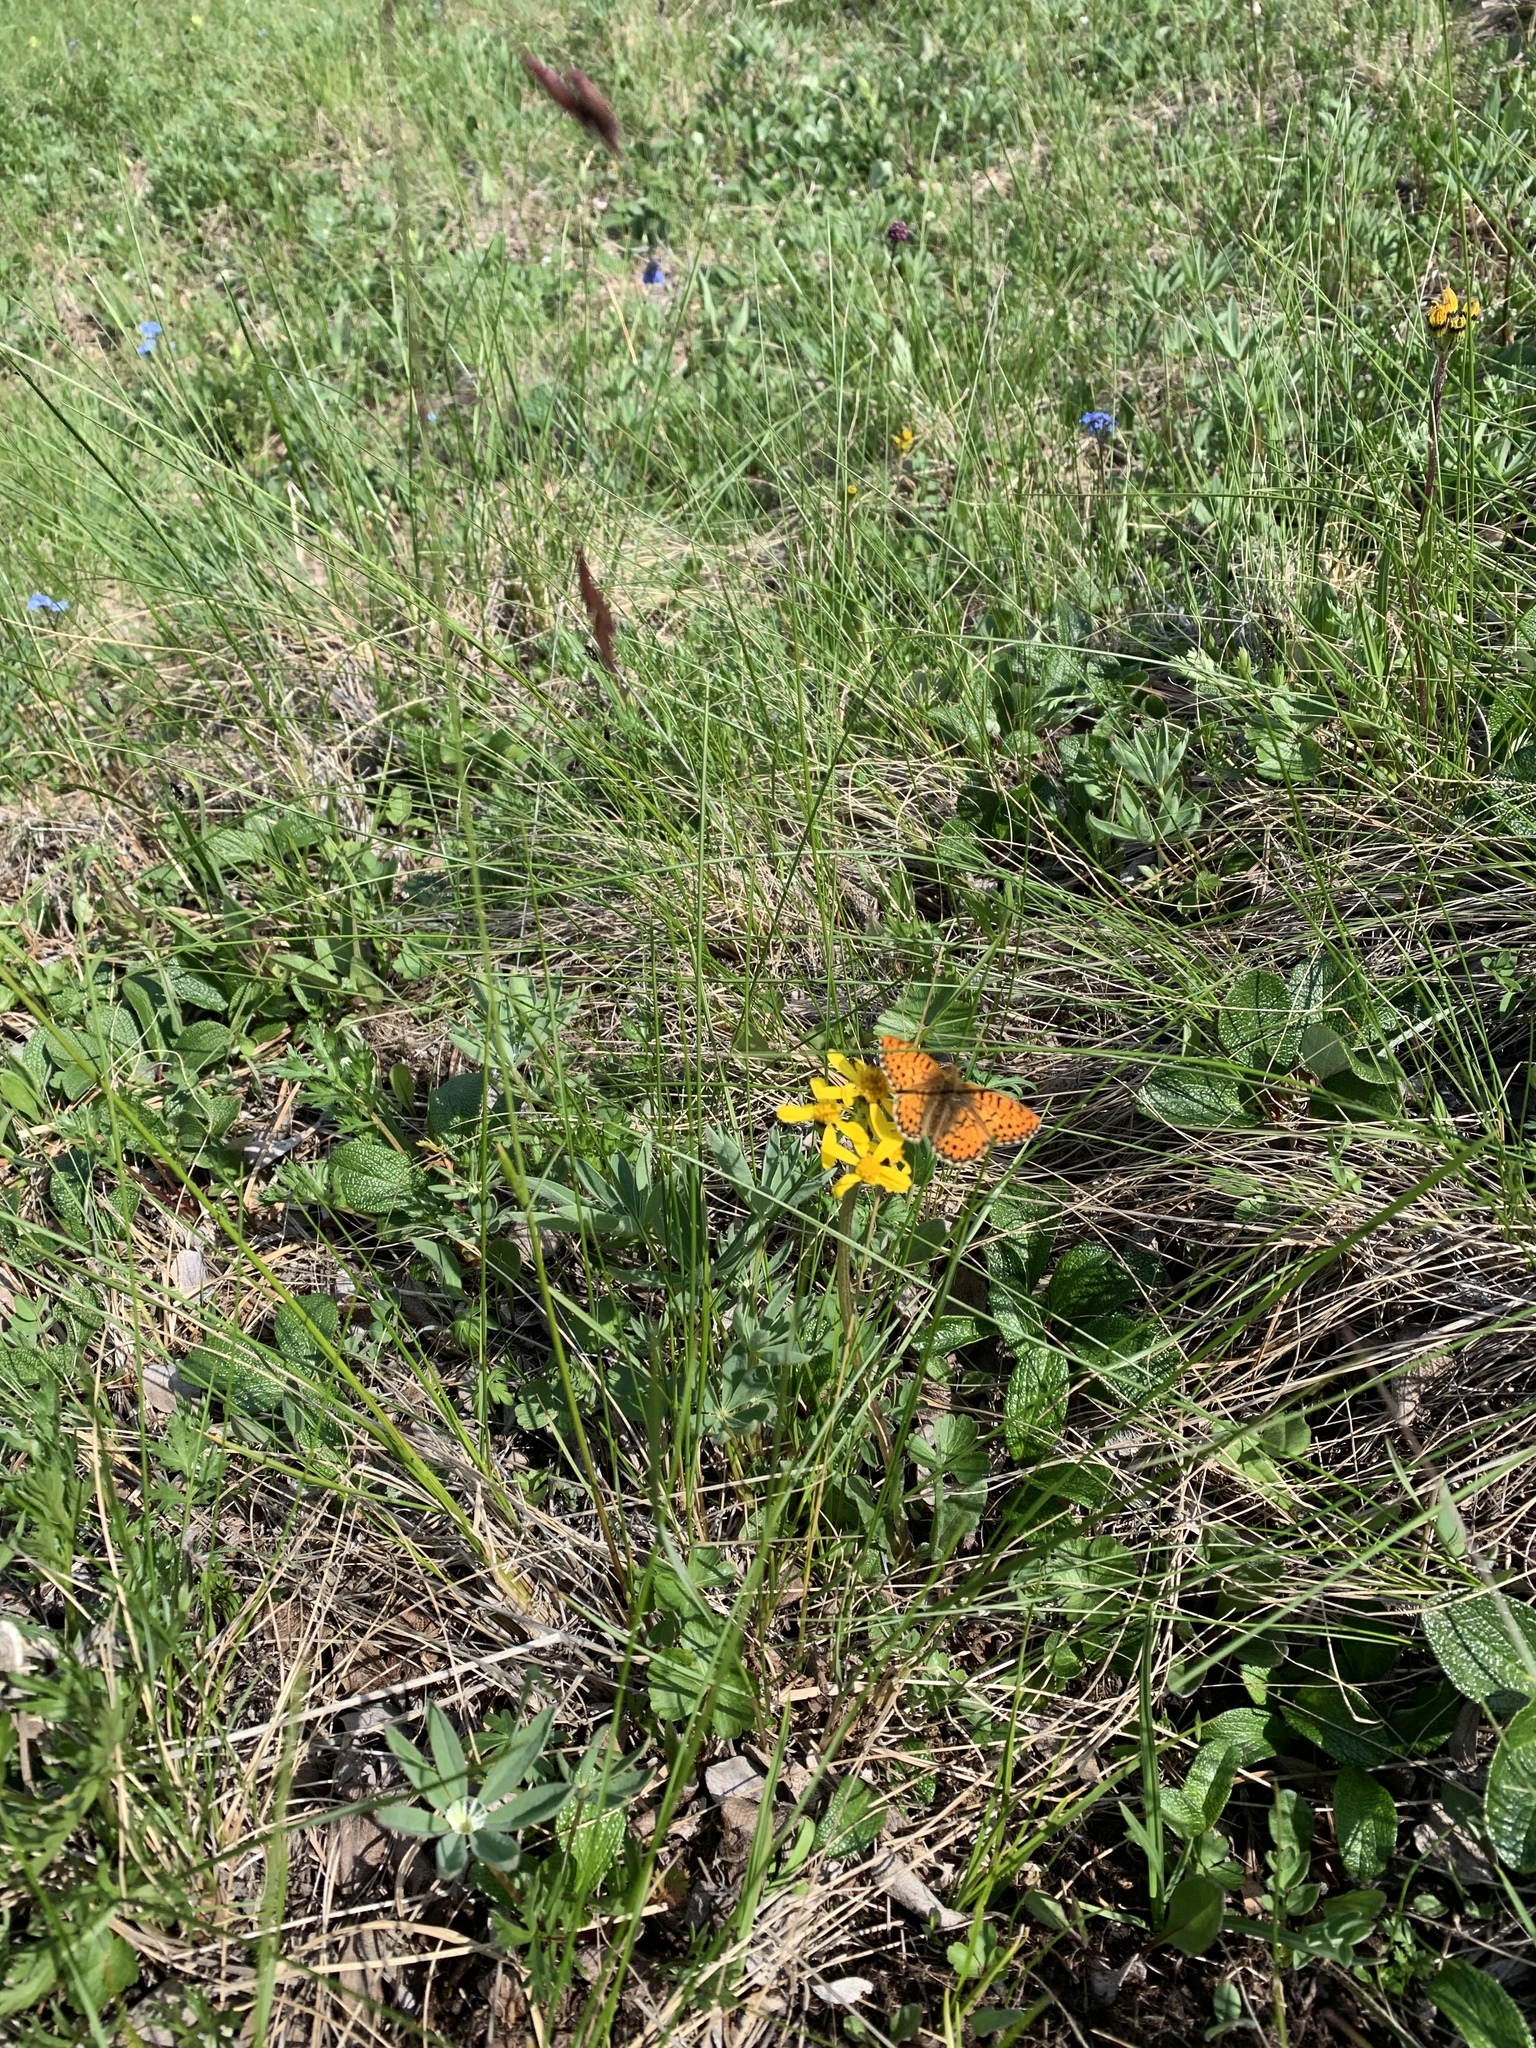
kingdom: Animalia
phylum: Arthropoda
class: Insecta
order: Lepidoptera
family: Nymphalidae
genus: Boloria
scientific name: Boloria chariclea
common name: Arctic fritillary
